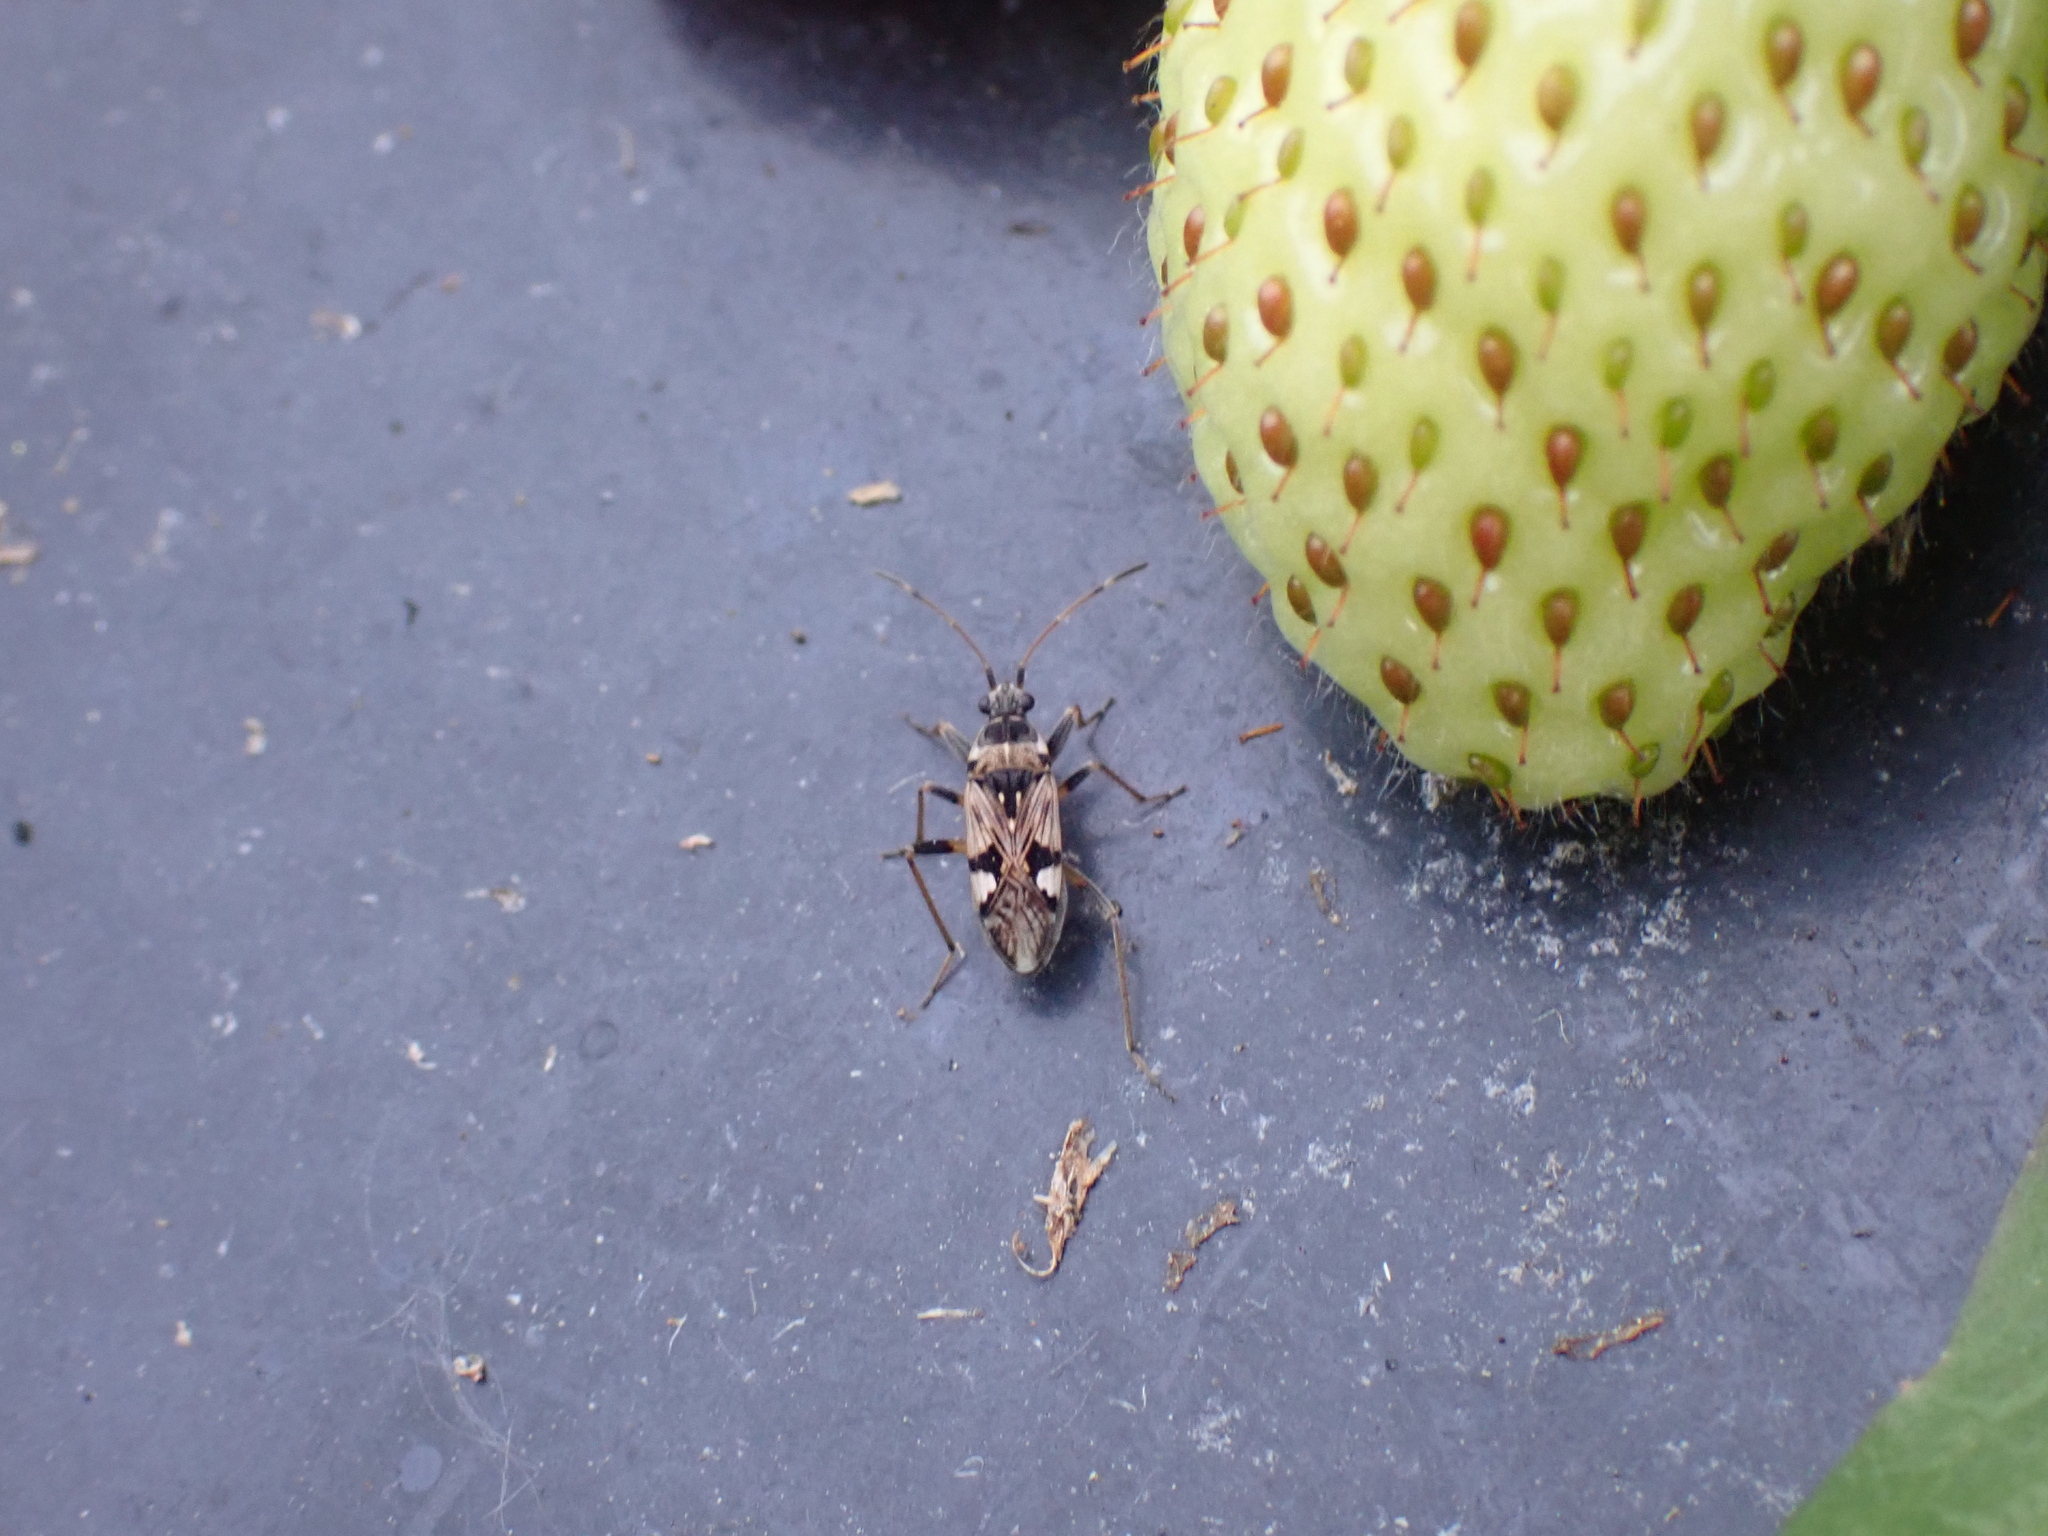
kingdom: Animalia
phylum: Arthropoda
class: Insecta
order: Hemiptera
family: Rhyparochromidae
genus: Beosus
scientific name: Beosus maritimus
